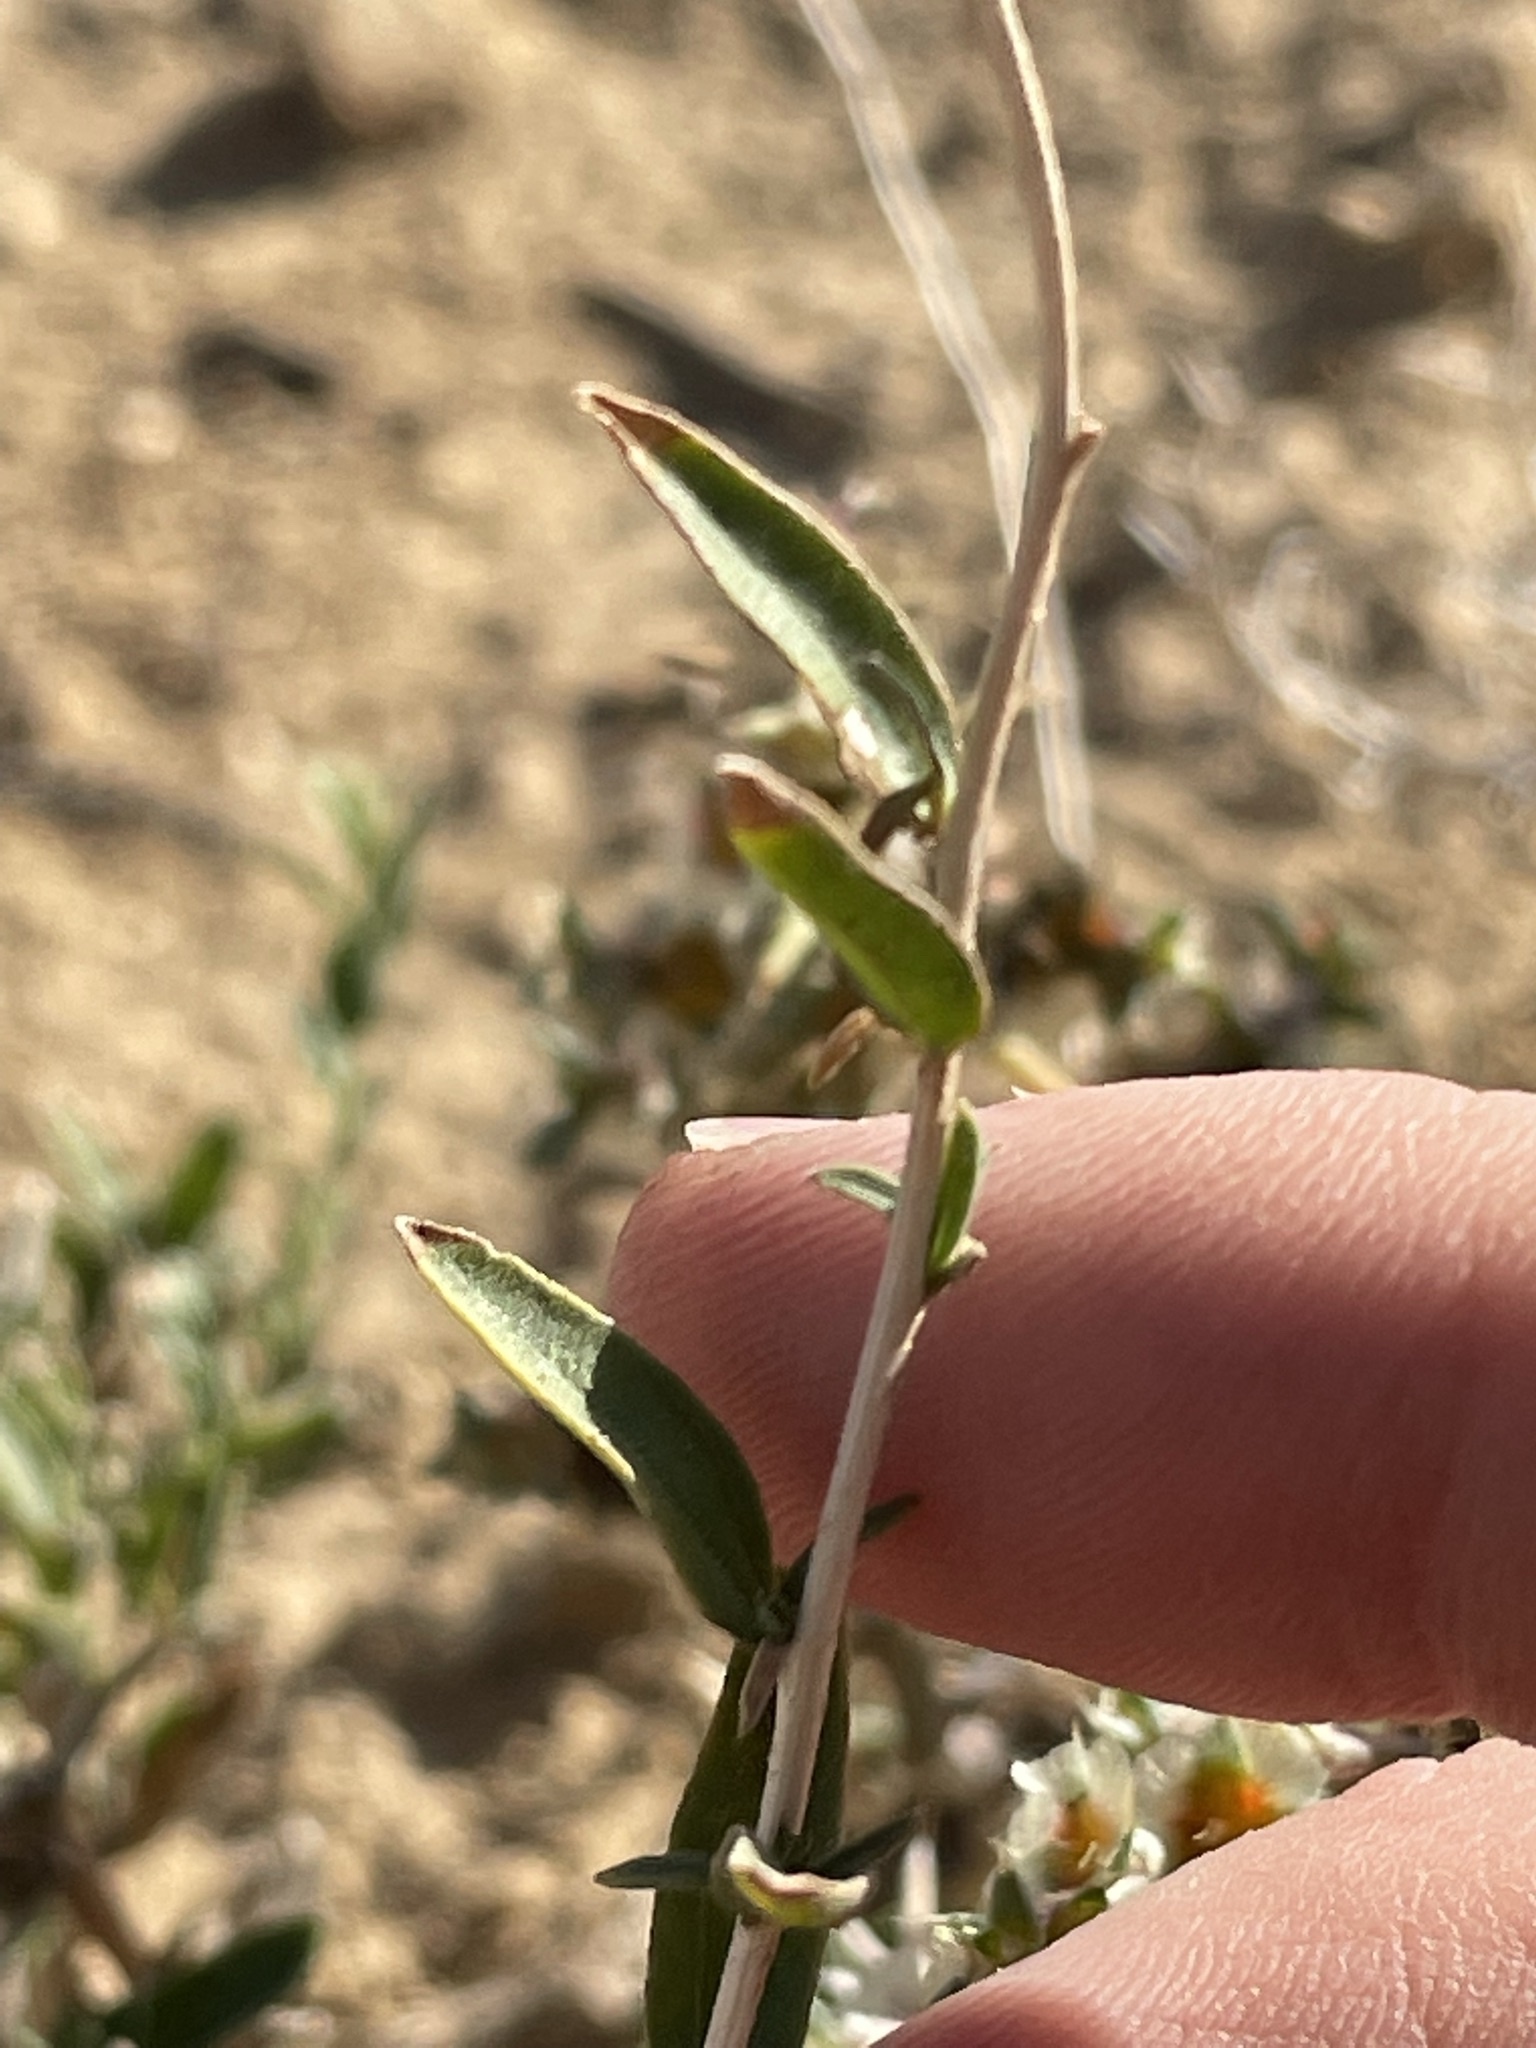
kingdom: Plantae
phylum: Tracheophyta
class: Magnoliopsida
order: Asterales
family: Asteraceae
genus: Brickellia
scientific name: Brickellia oblongifolia
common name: Mojave brickellbush
